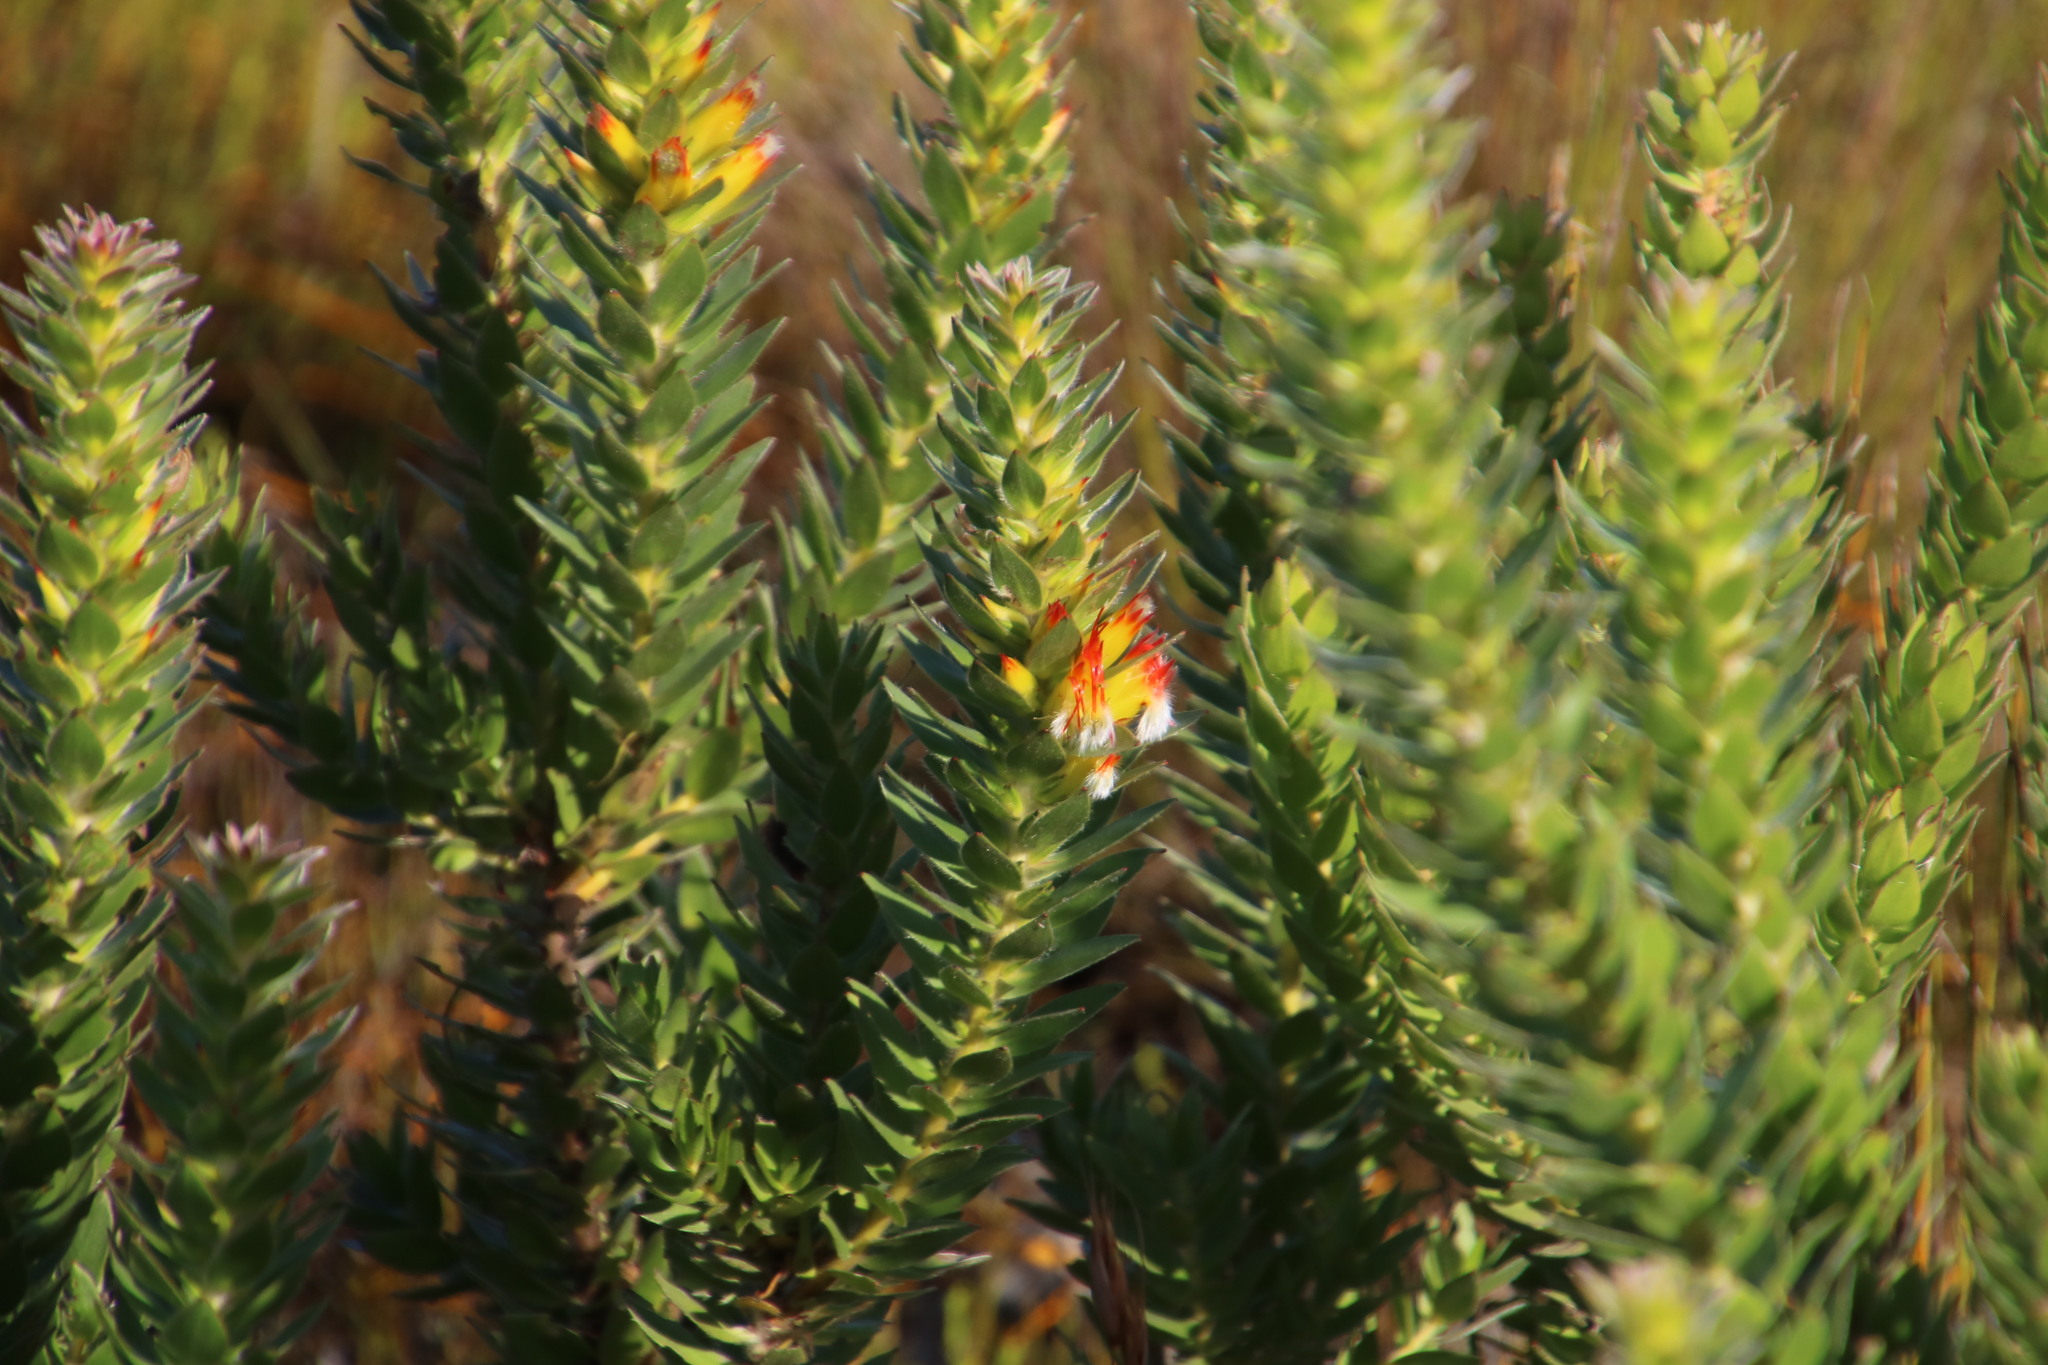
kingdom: Plantae
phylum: Tracheophyta
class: Magnoliopsida
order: Proteales
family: Proteaceae
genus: Mimetes
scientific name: Mimetes hirtus
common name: Marsh pagoda
